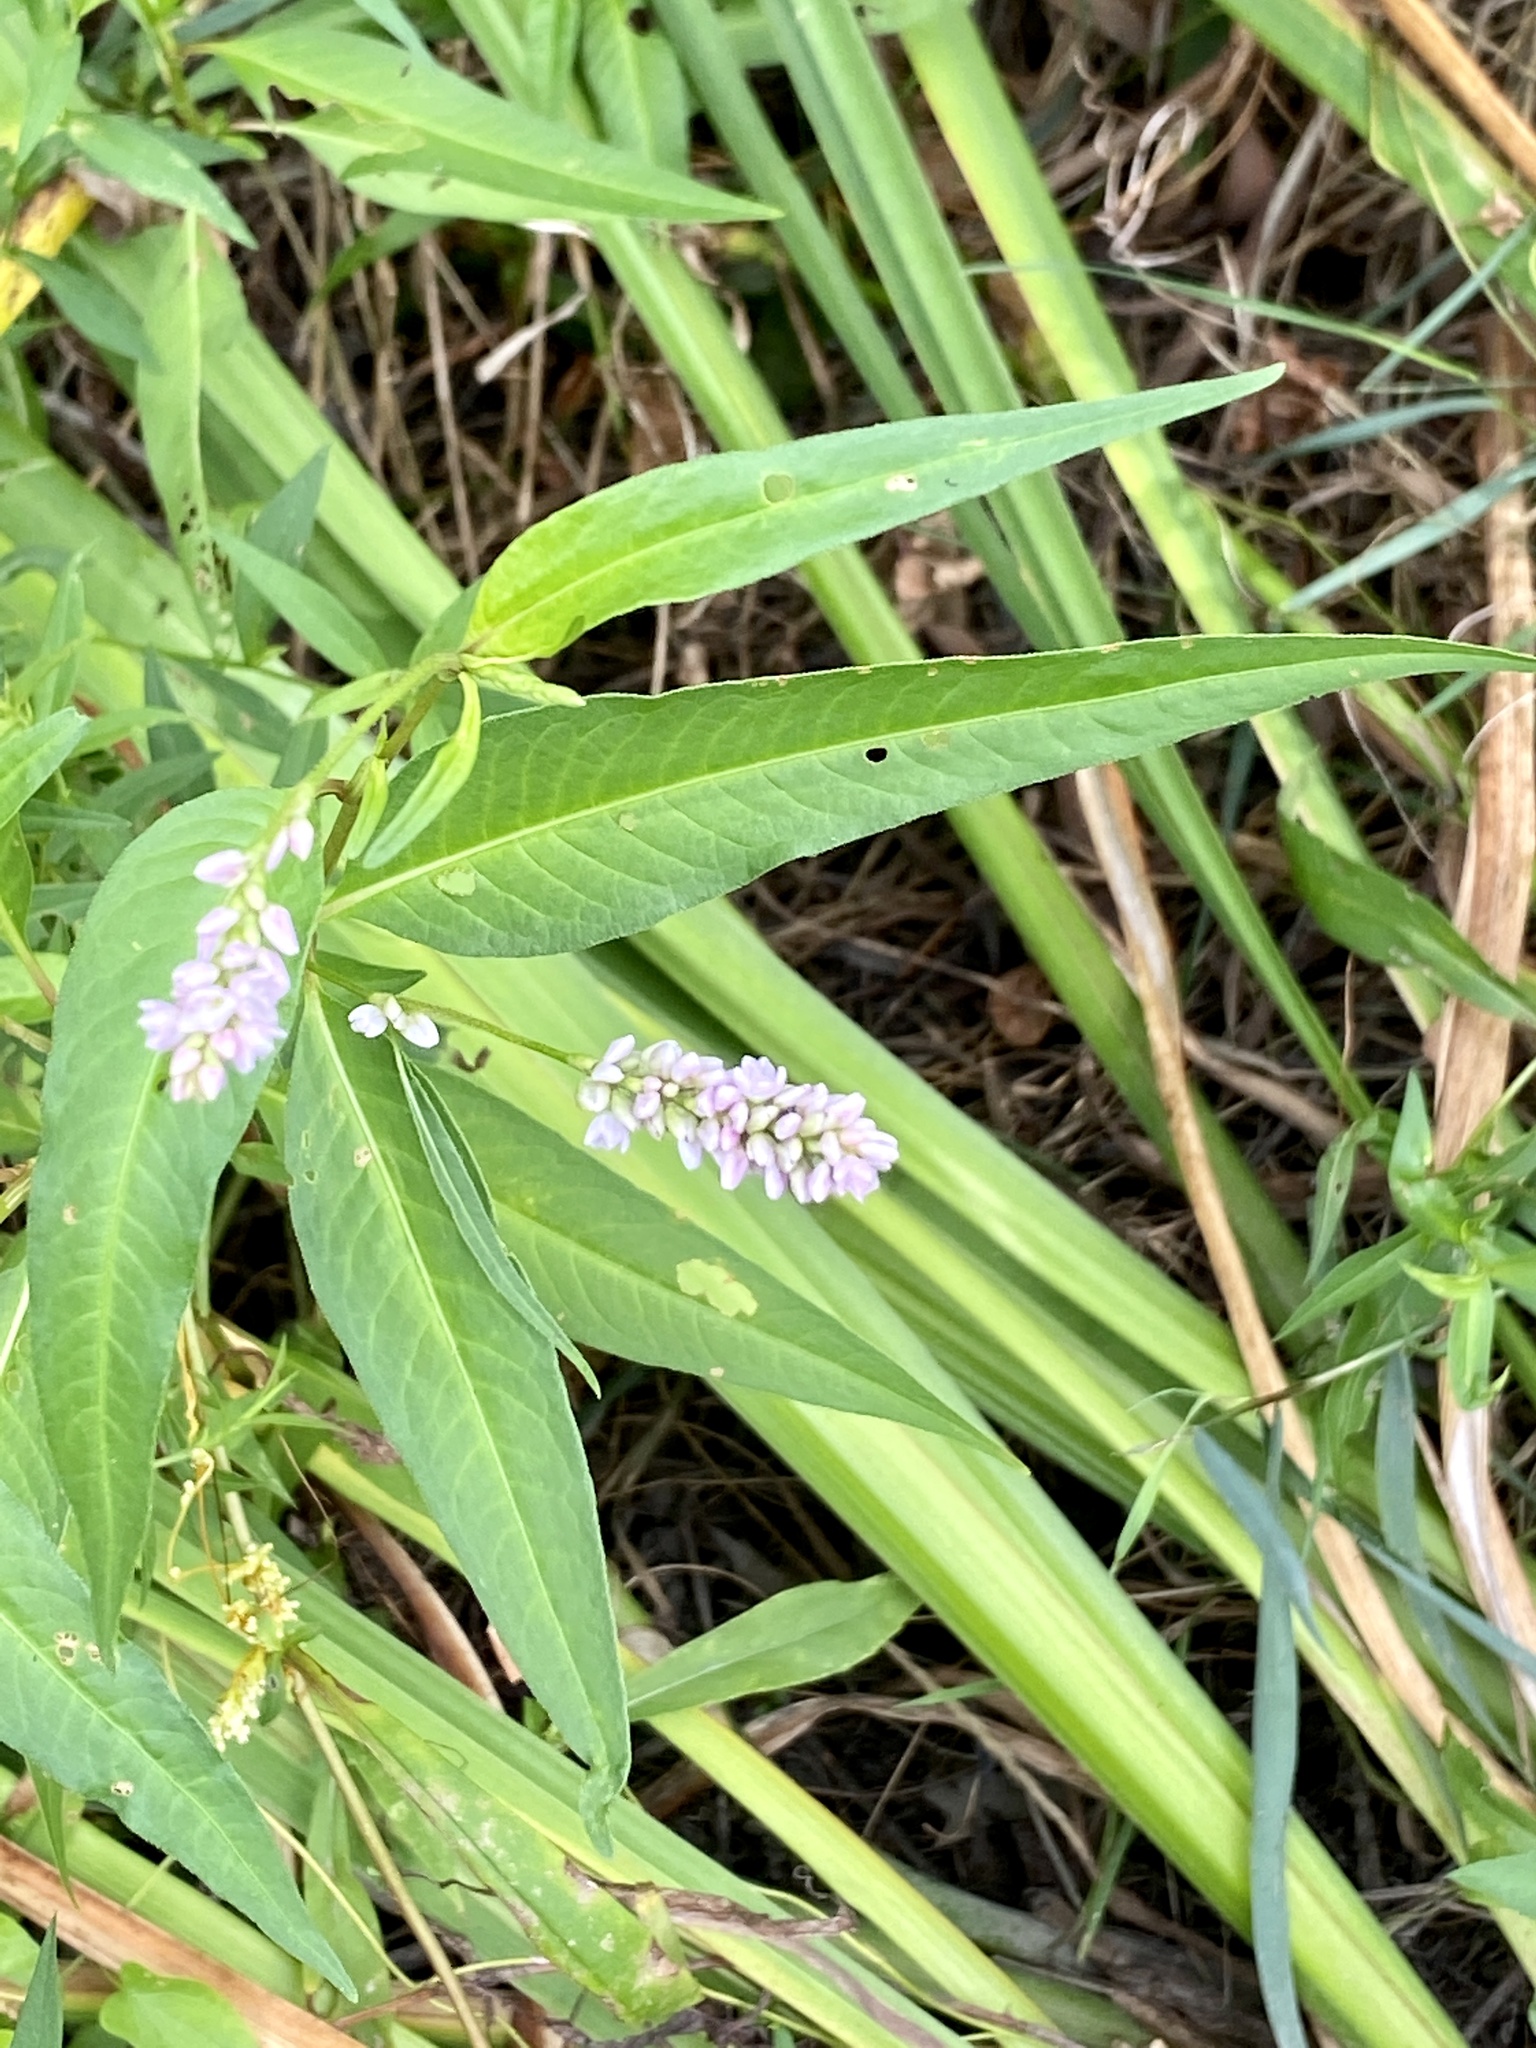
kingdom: Plantae
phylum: Tracheophyta
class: Magnoliopsida
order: Caryophyllales
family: Polygonaceae
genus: Persicaria
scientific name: Persicaria pensylvanica
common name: Pinkweed
